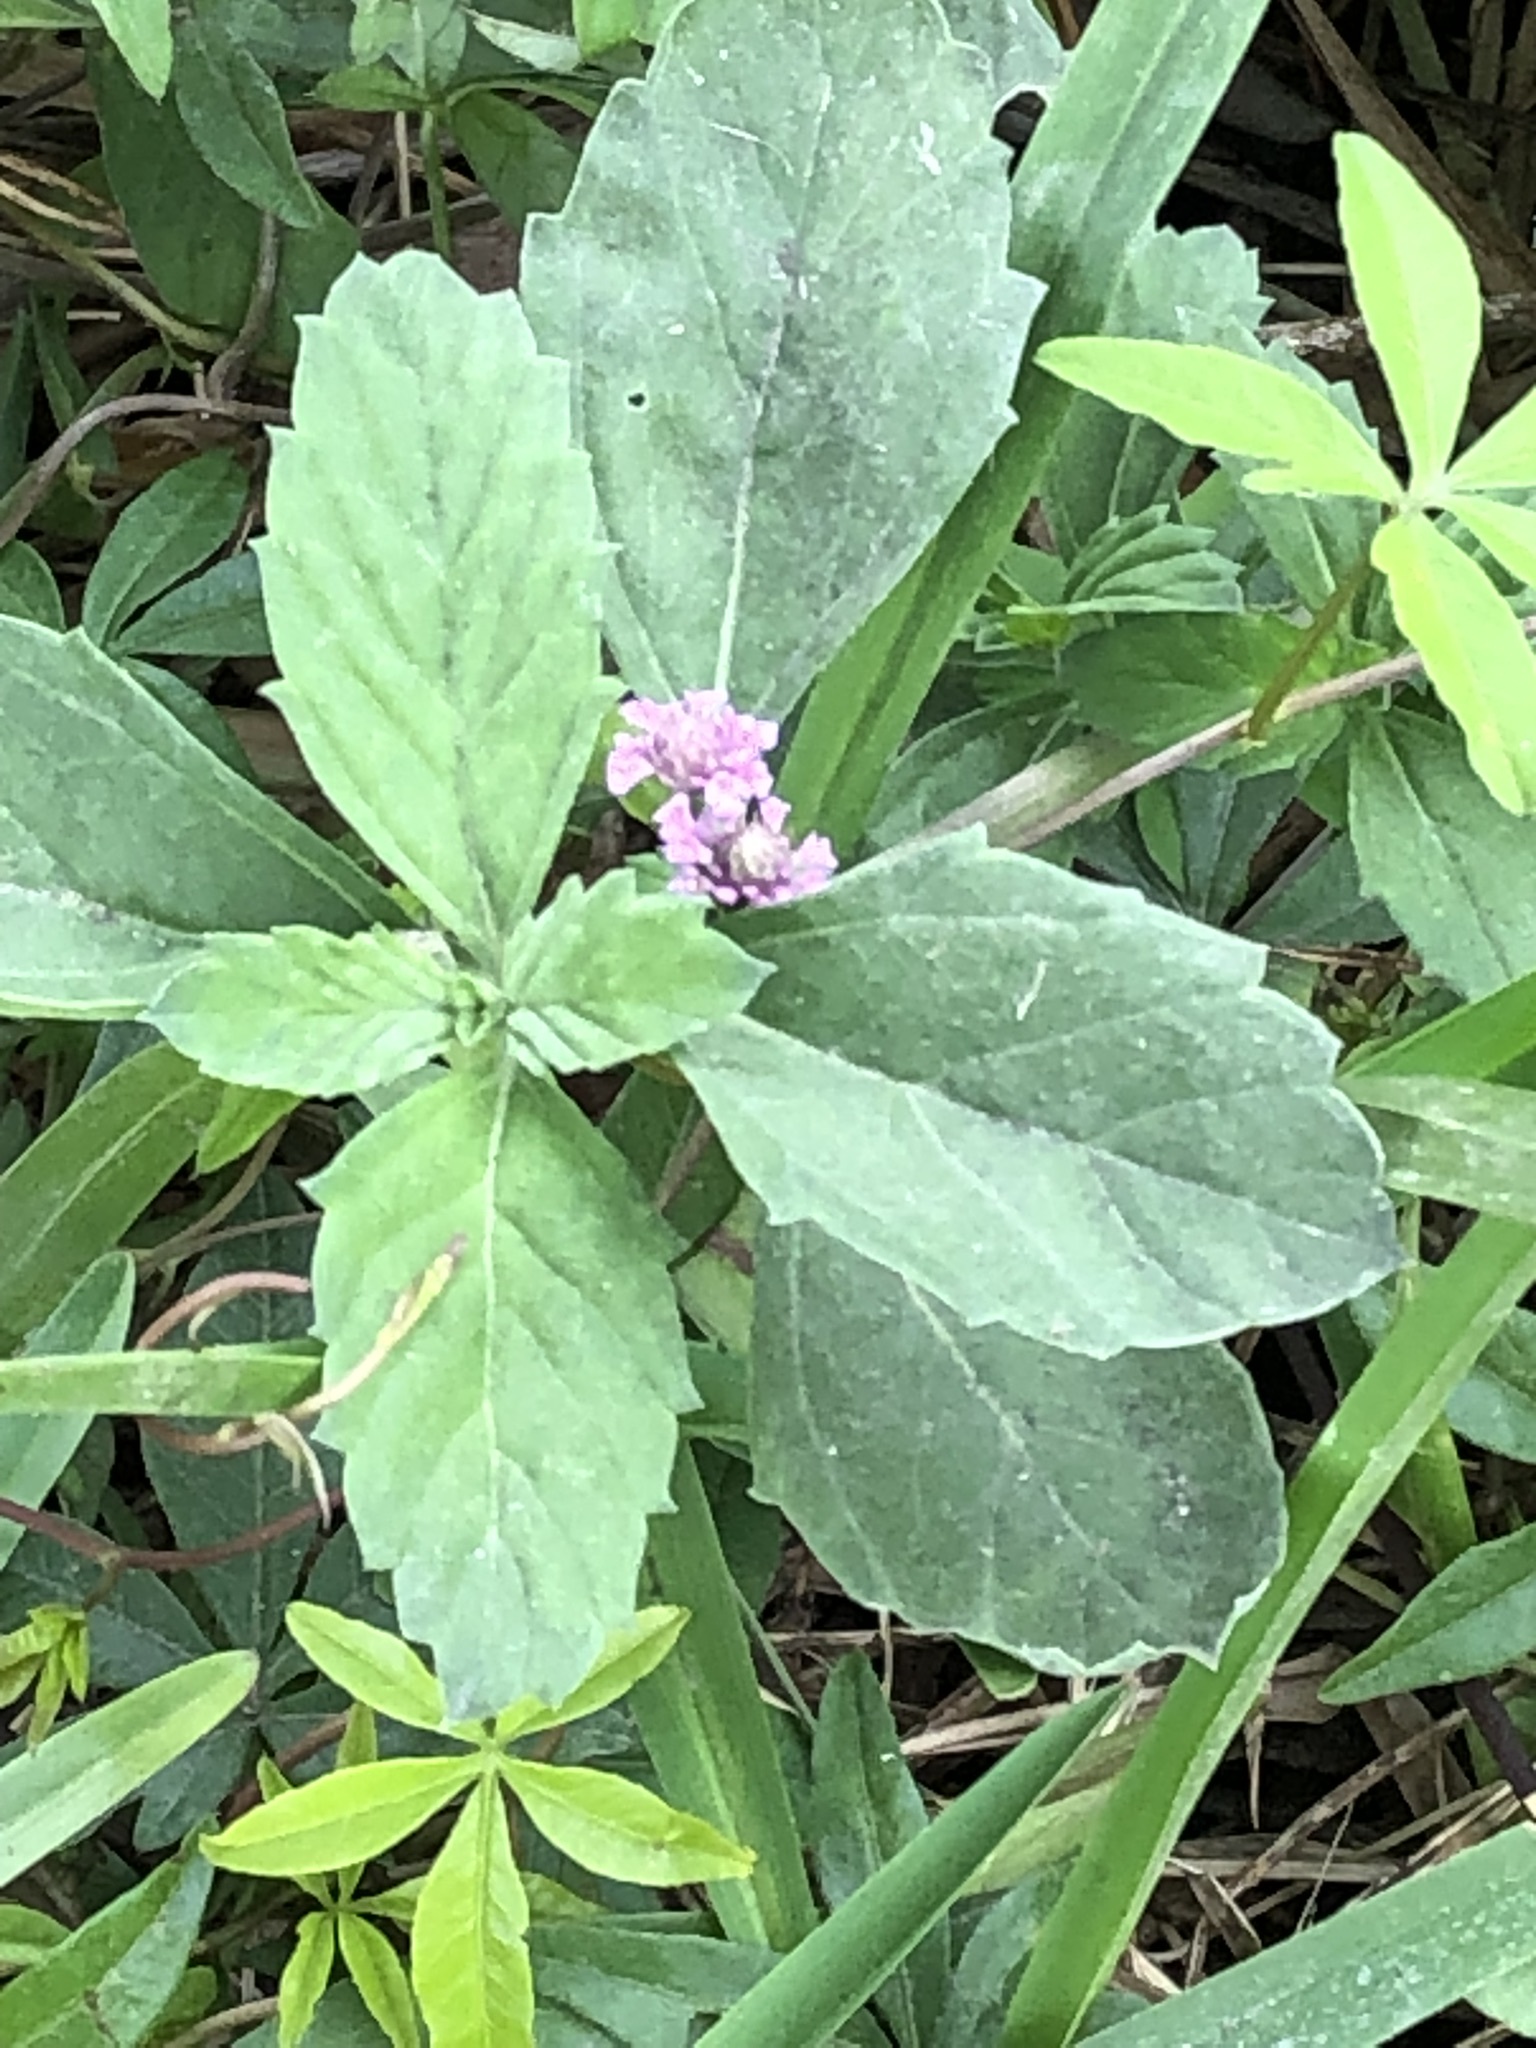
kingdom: Plantae
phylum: Tracheophyta
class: Magnoliopsida
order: Lamiales
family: Verbenaceae
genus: Phyla
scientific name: Phyla nodiflora
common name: Frogfruit
